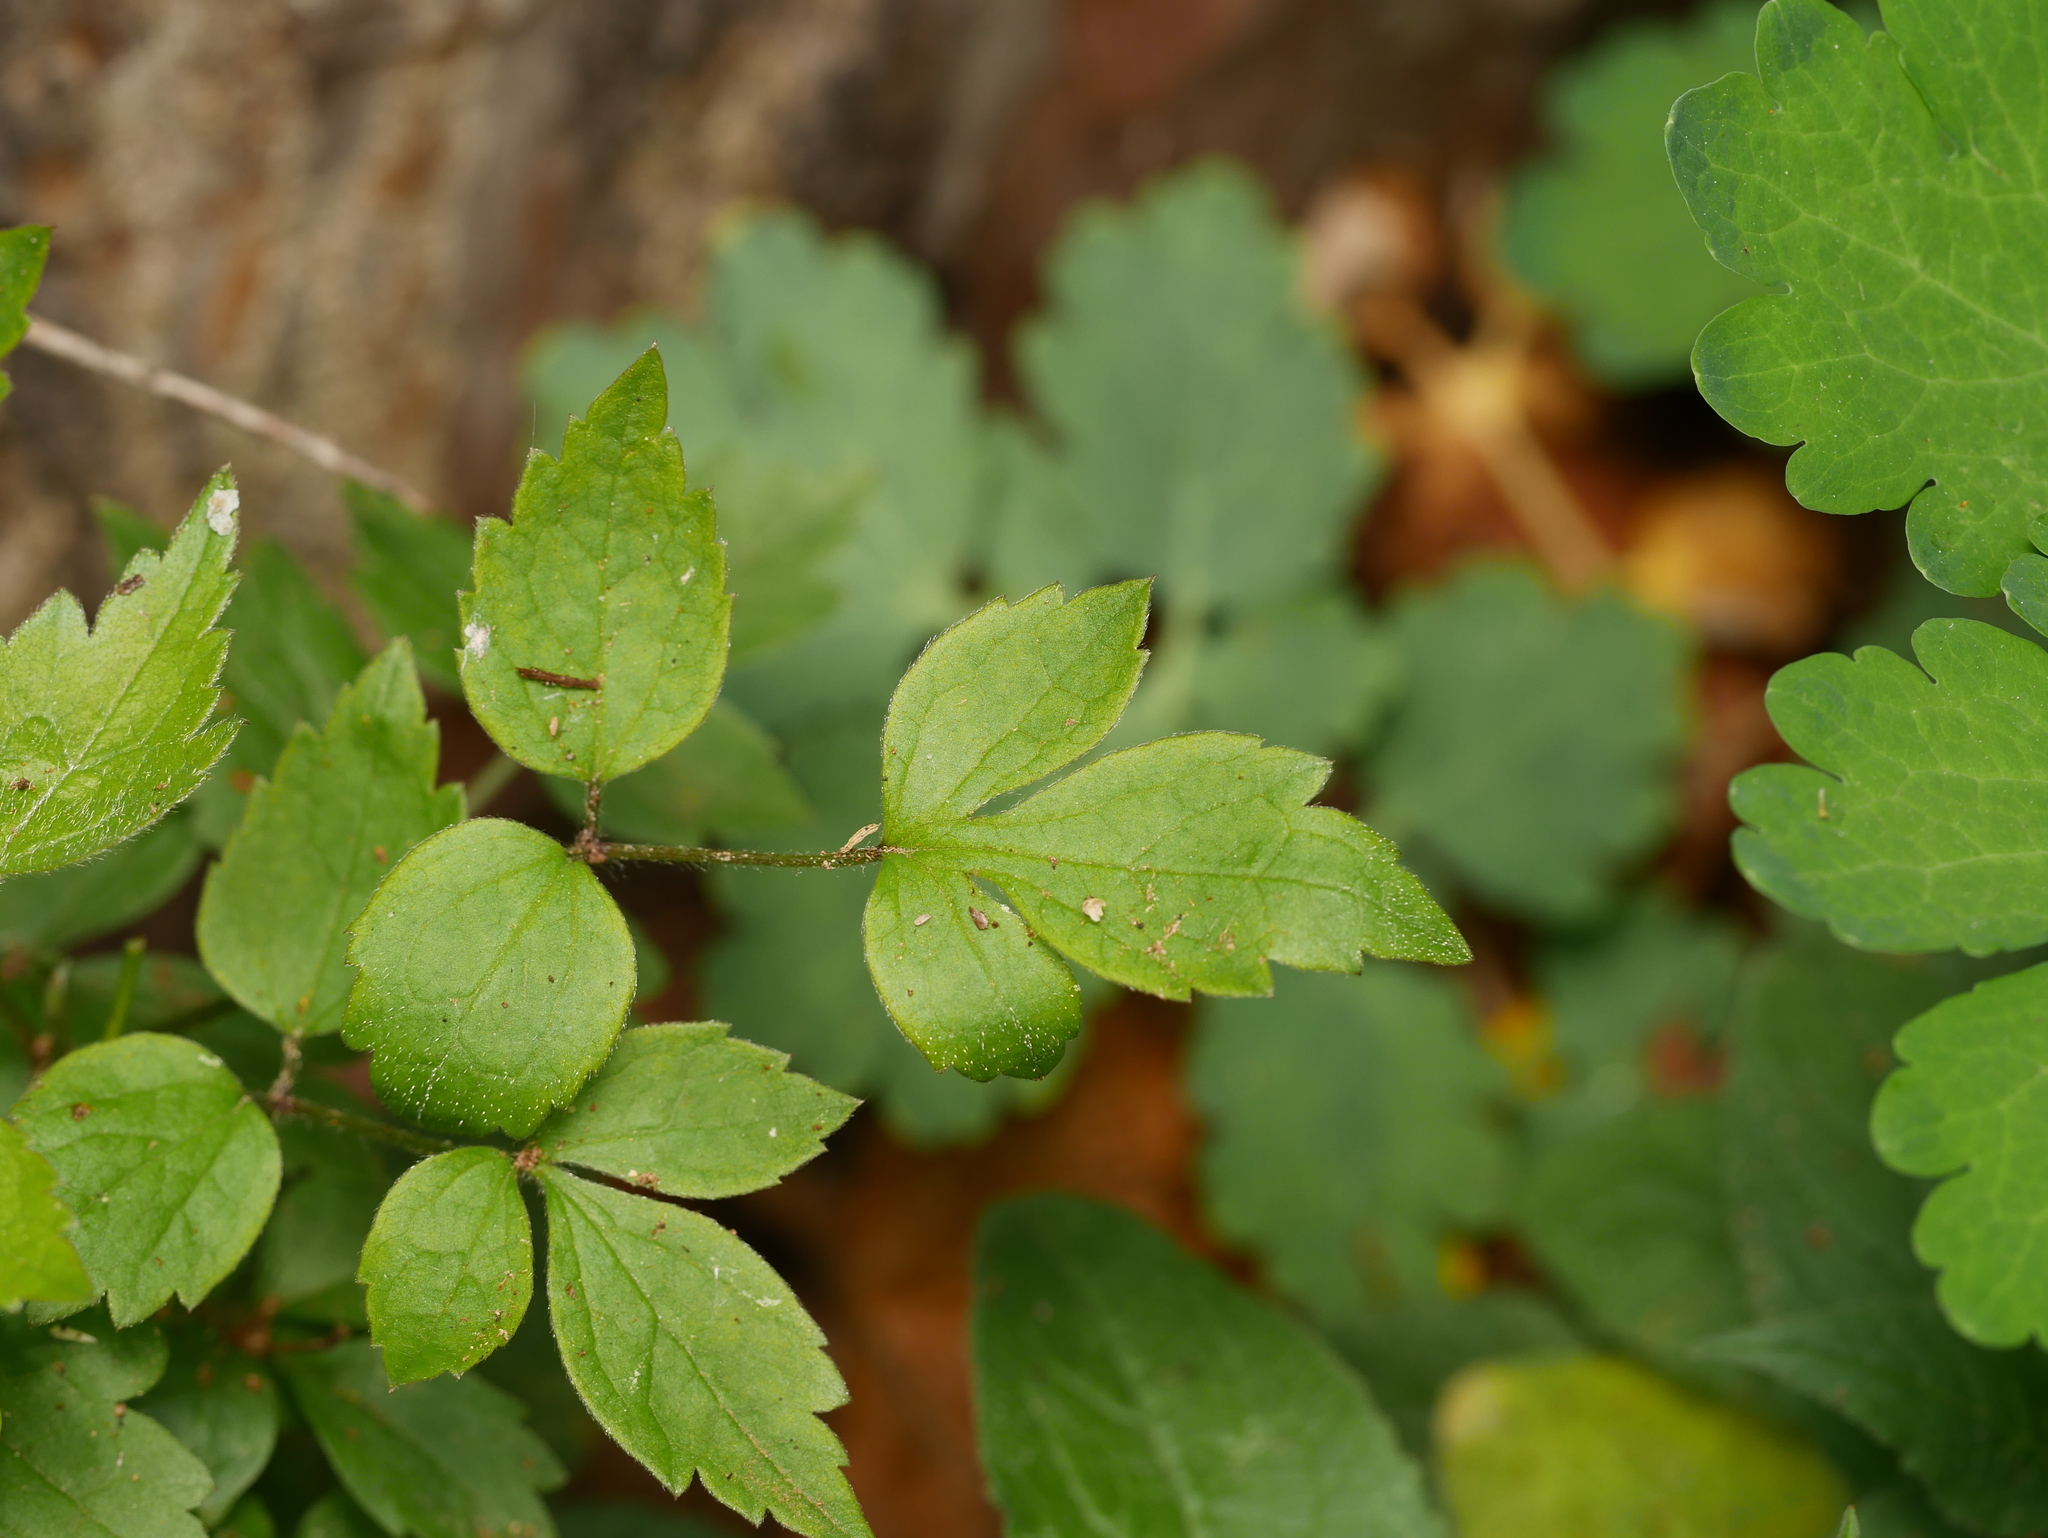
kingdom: Plantae
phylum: Tracheophyta
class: Magnoliopsida
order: Ranunculales
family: Ranunculaceae
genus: Clematis
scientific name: Clematis vitalba
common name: Evergreen clematis
